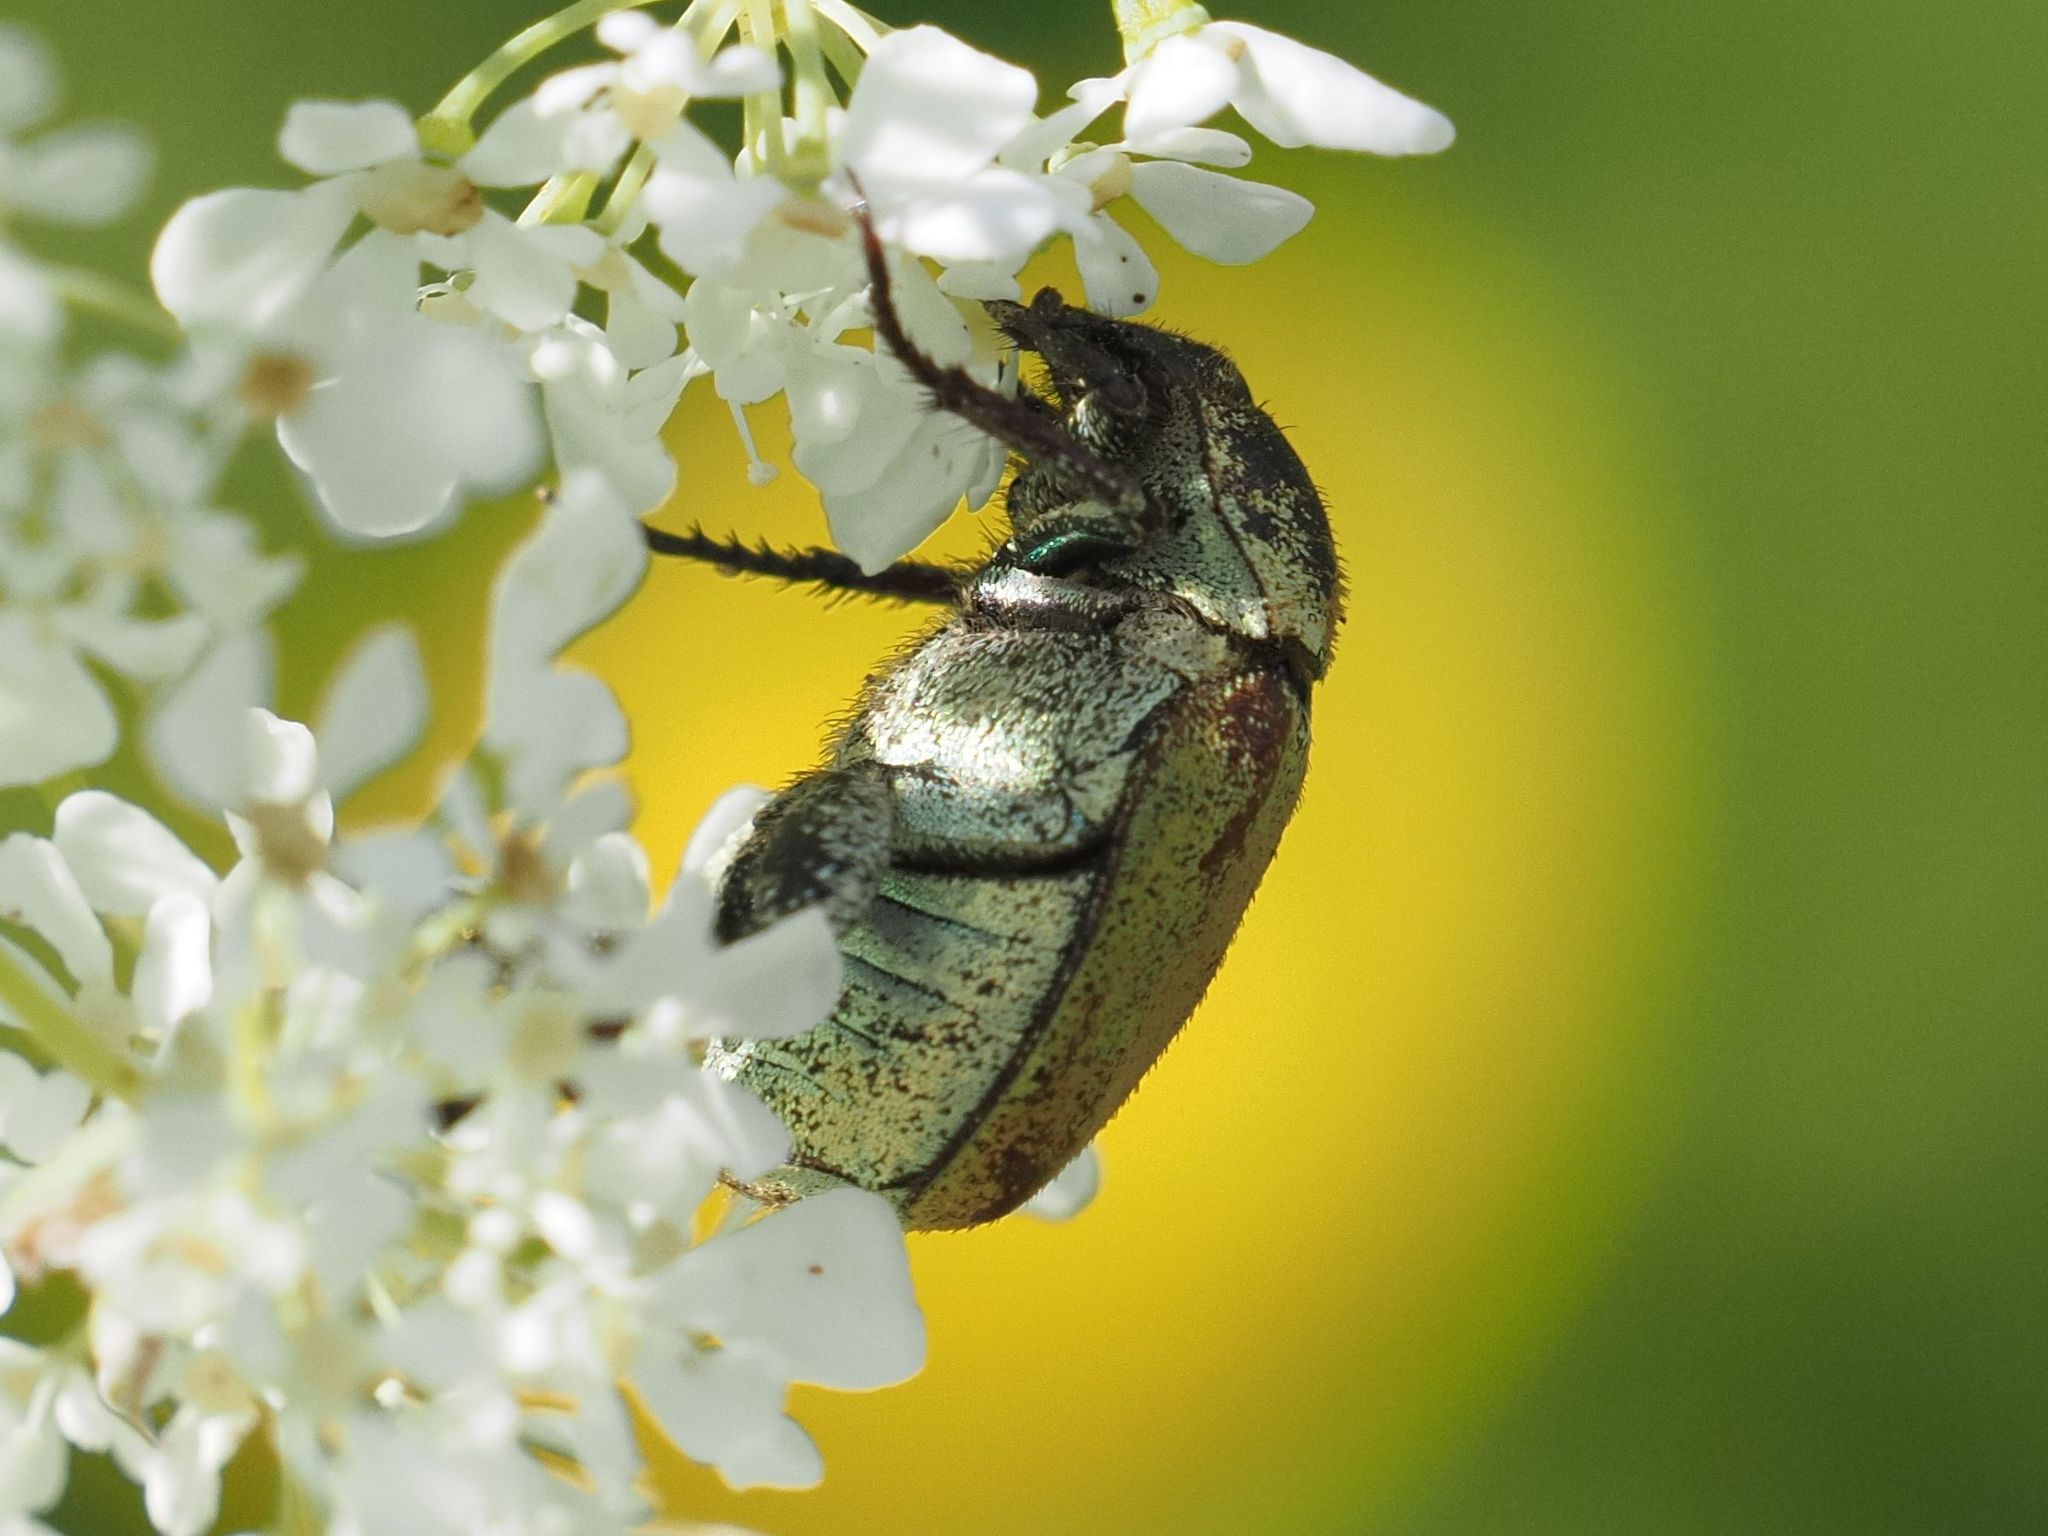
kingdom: Animalia
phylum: Arthropoda
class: Insecta
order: Coleoptera
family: Scarabaeidae
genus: Hoplia
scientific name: Hoplia argentea
